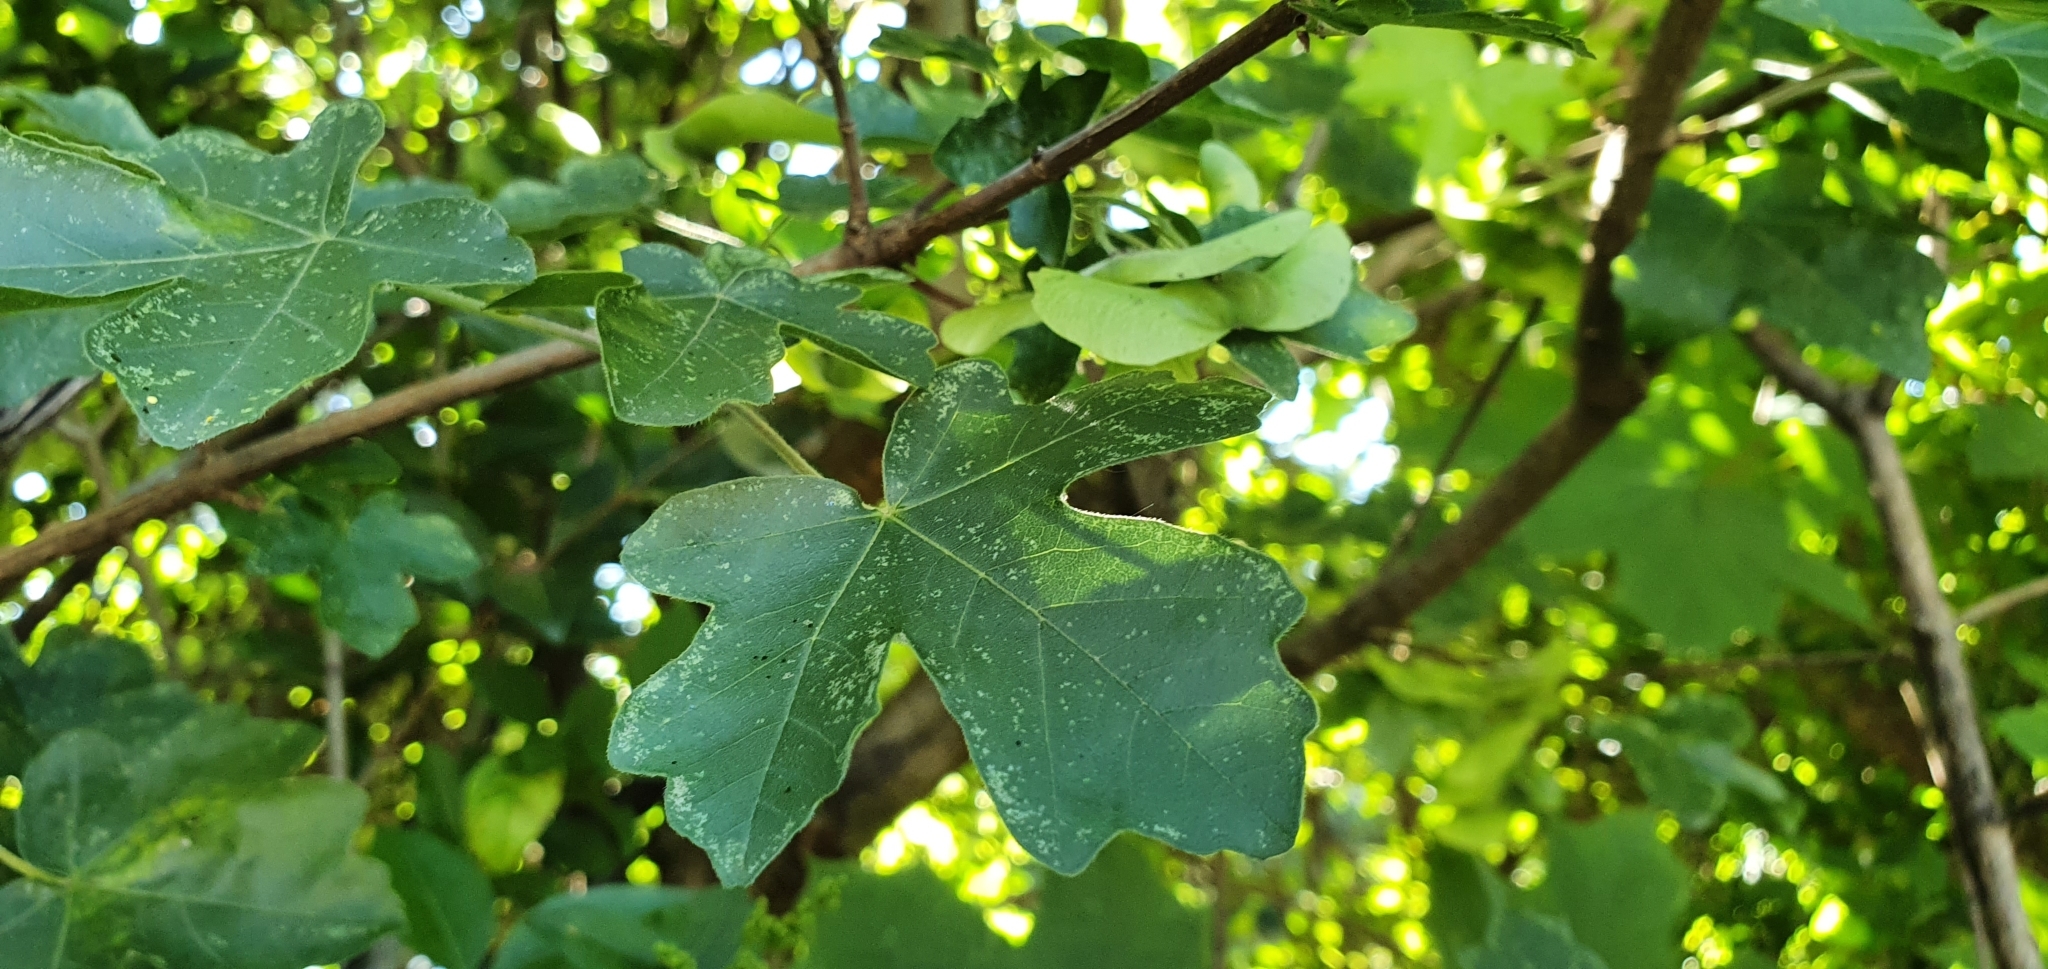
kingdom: Plantae
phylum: Tracheophyta
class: Magnoliopsida
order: Sapindales
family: Sapindaceae
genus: Acer
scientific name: Acer campestre
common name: Field maple
